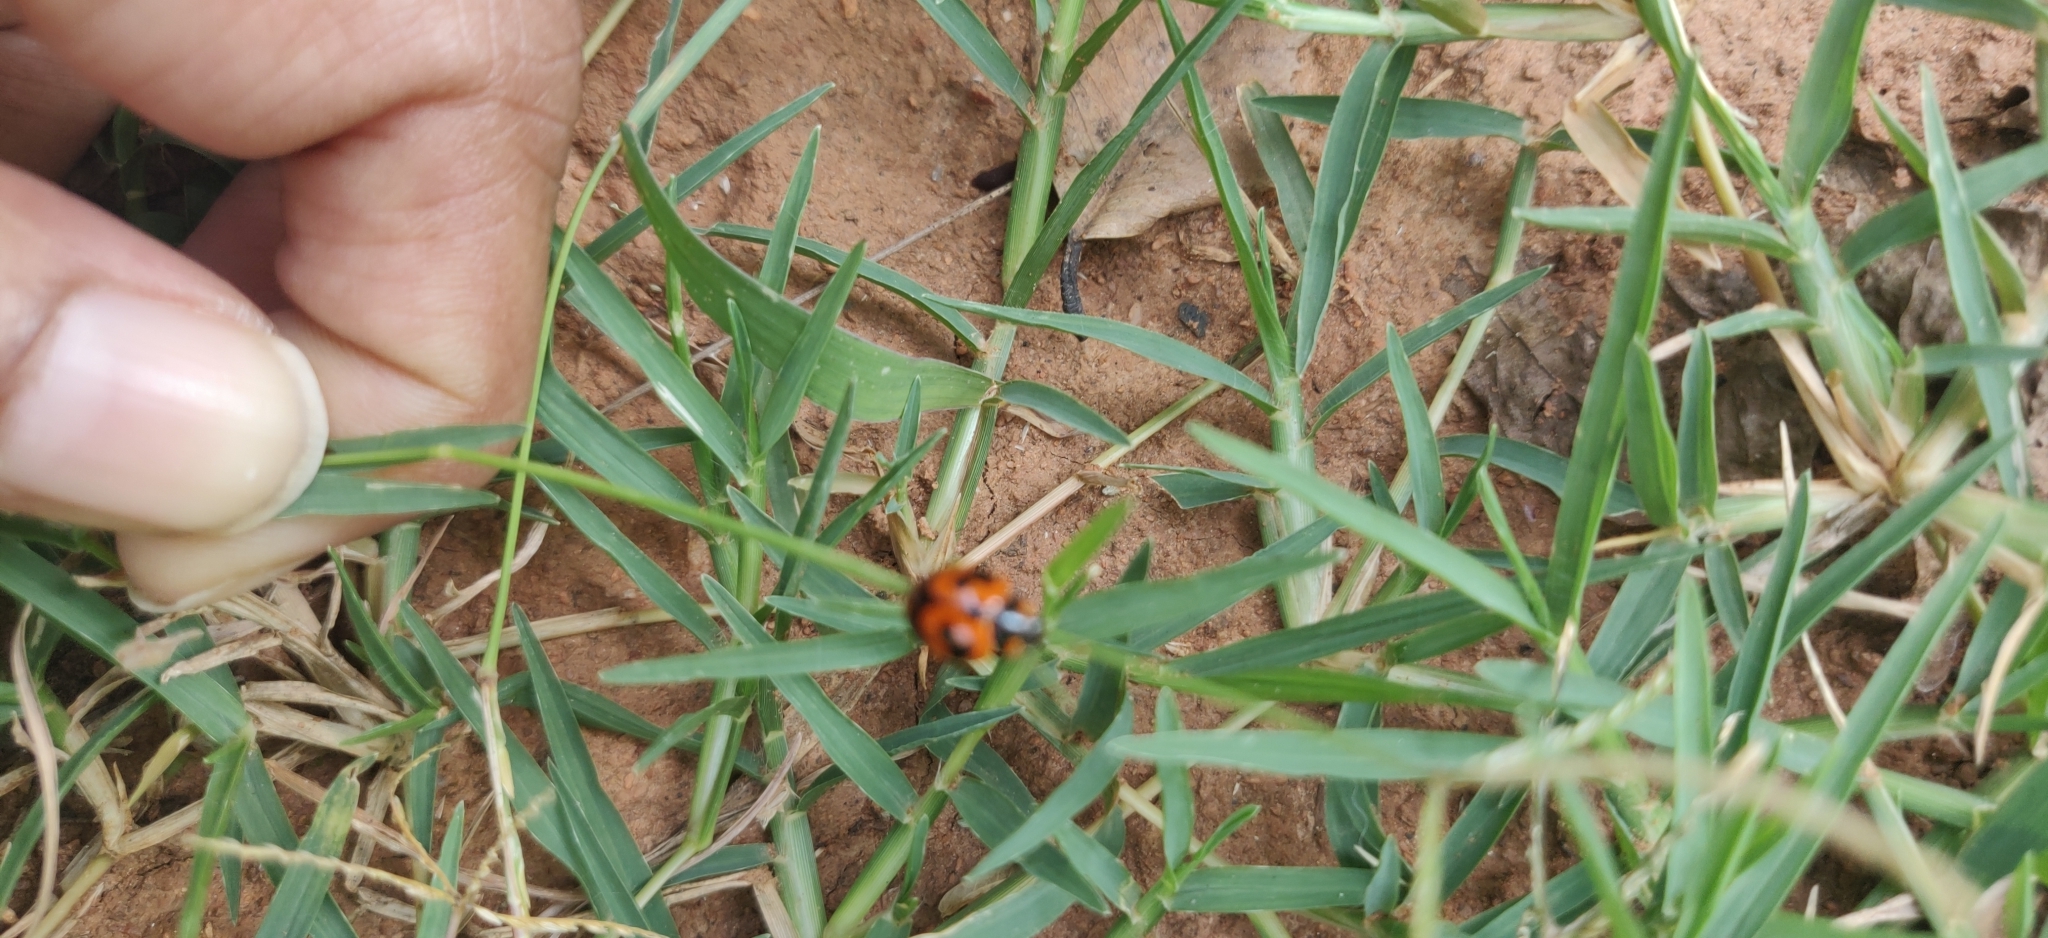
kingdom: Animalia
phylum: Arthropoda
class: Insecta
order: Coleoptera
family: Coccinellidae
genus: Coccinella
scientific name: Coccinella transversalis
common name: Transverse lady beetle
